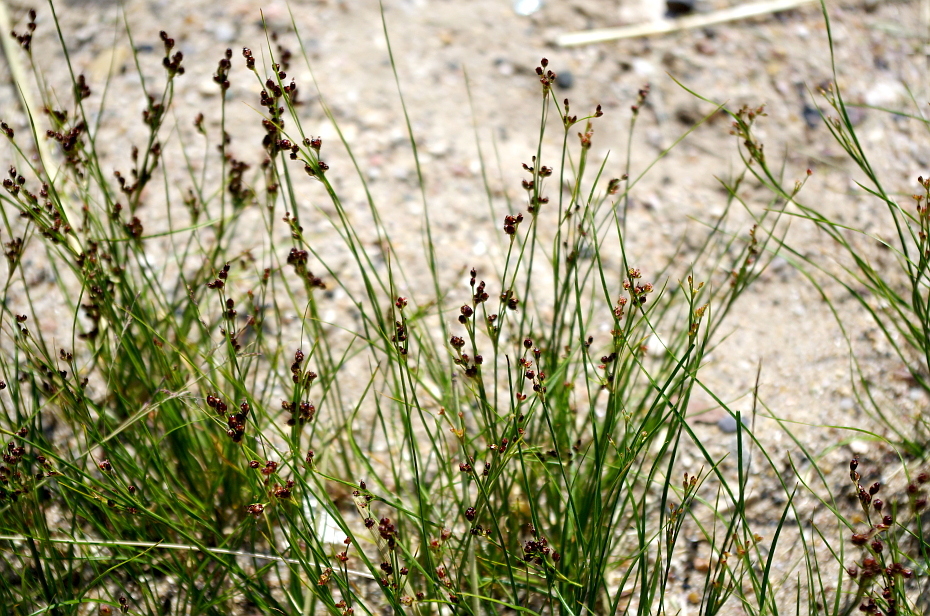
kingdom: Plantae
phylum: Tracheophyta
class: Liliopsida
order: Poales
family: Juncaceae
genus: Juncus
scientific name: Juncus compressus
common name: Round-fruited rush
